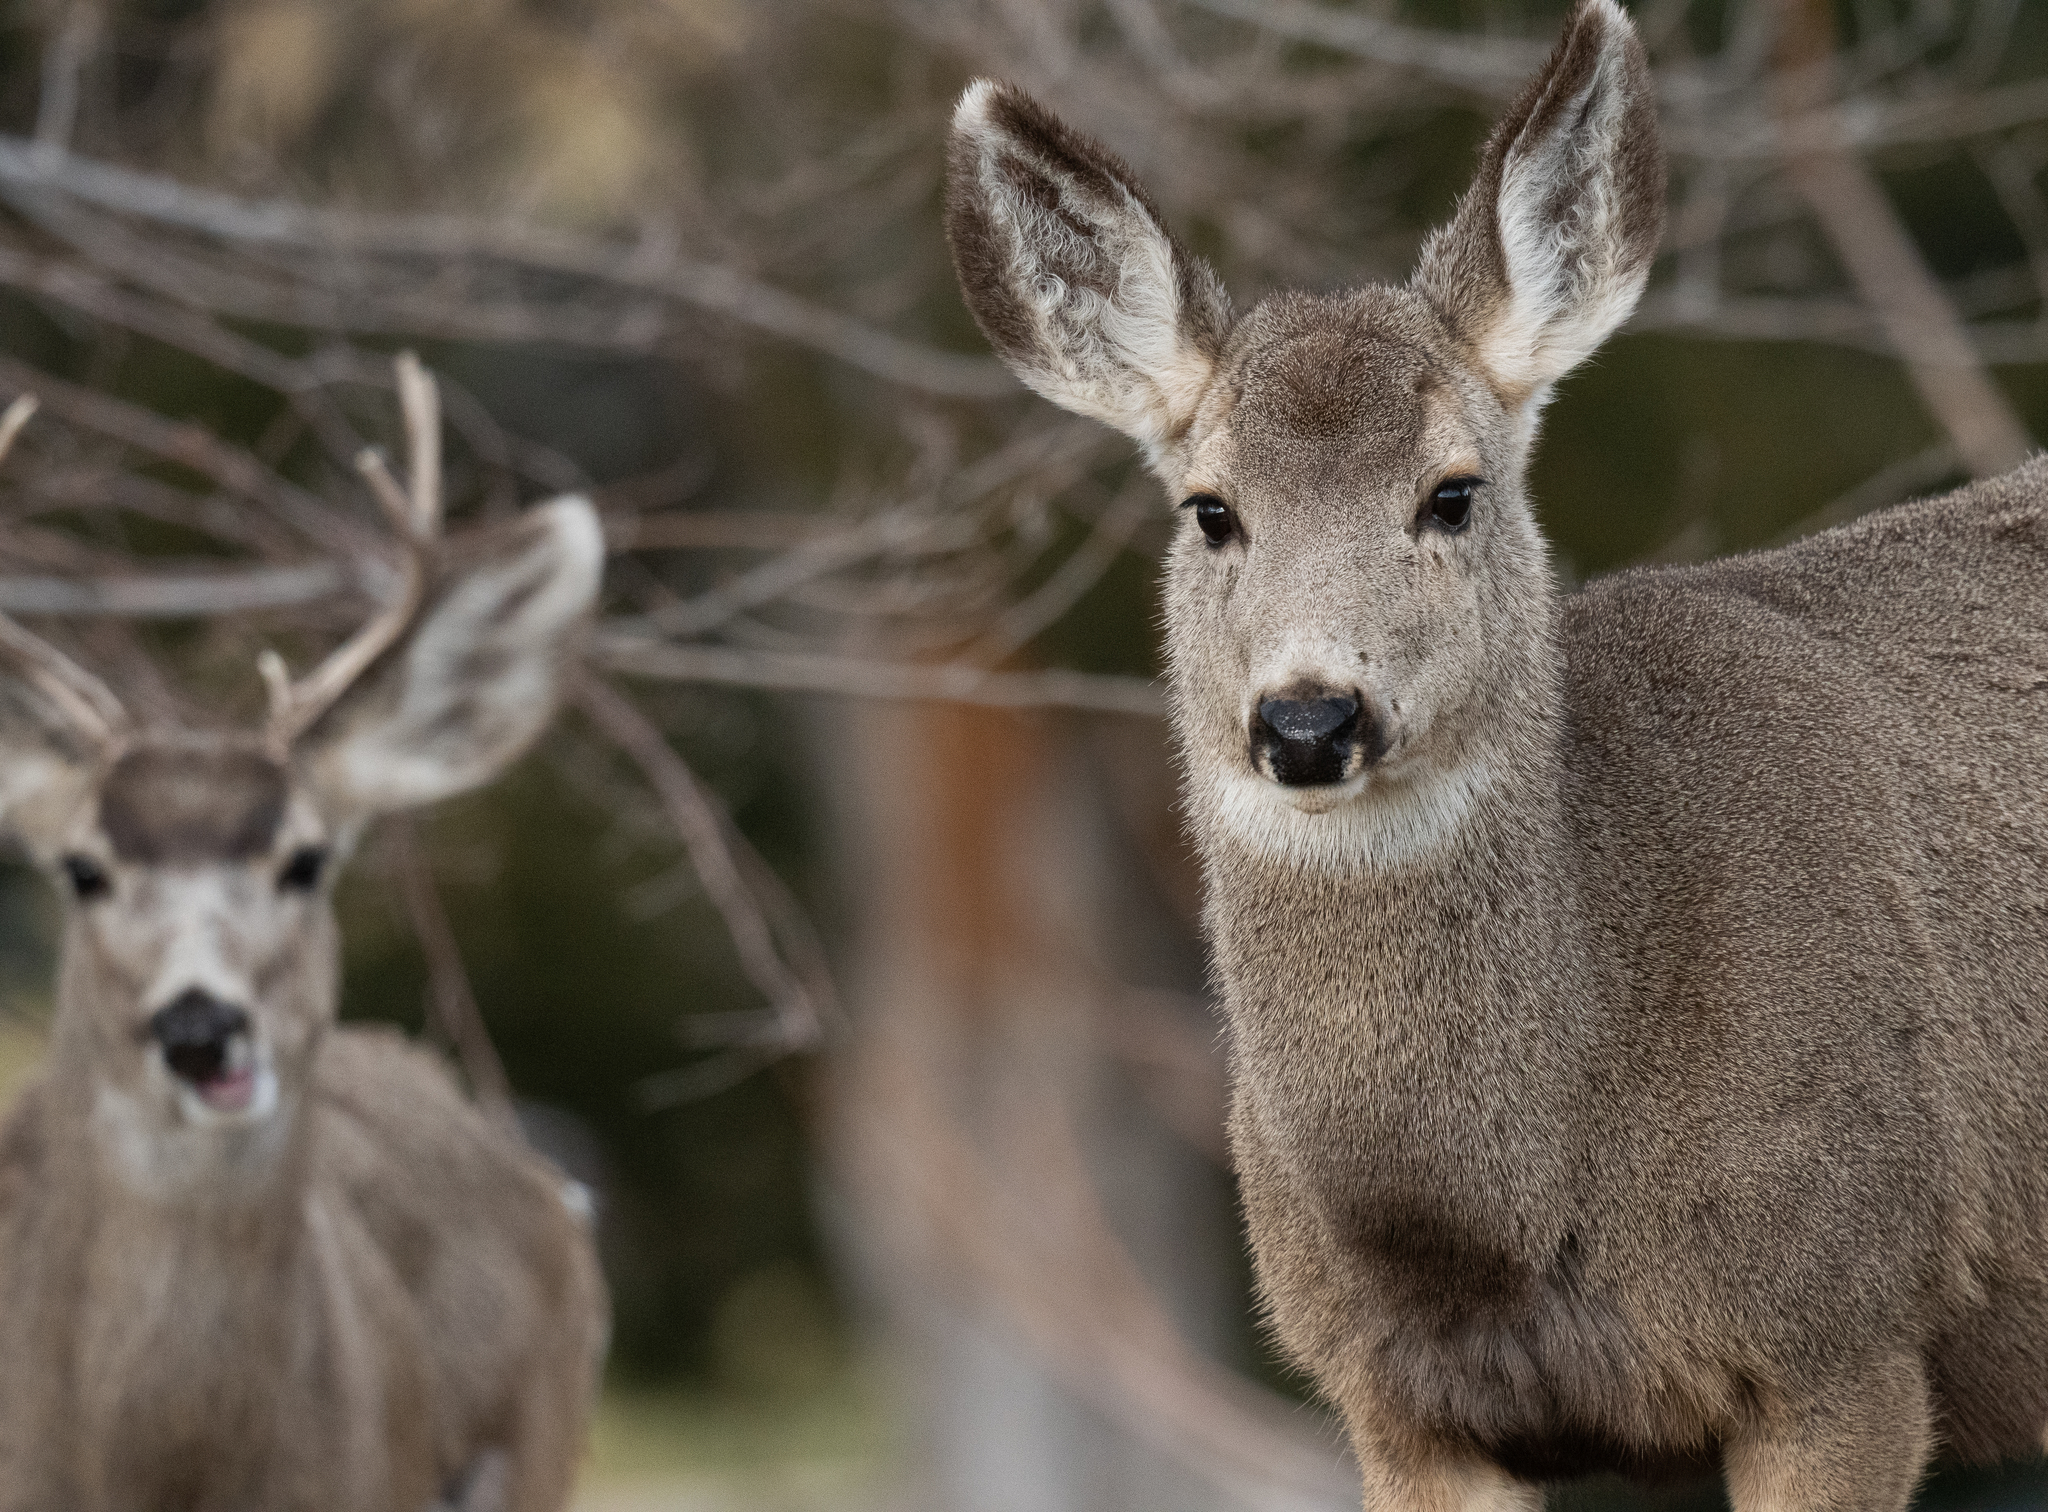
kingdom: Animalia
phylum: Chordata
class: Mammalia
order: Artiodactyla
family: Cervidae
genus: Odocoileus
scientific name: Odocoileus hemionus
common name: Mule deer
